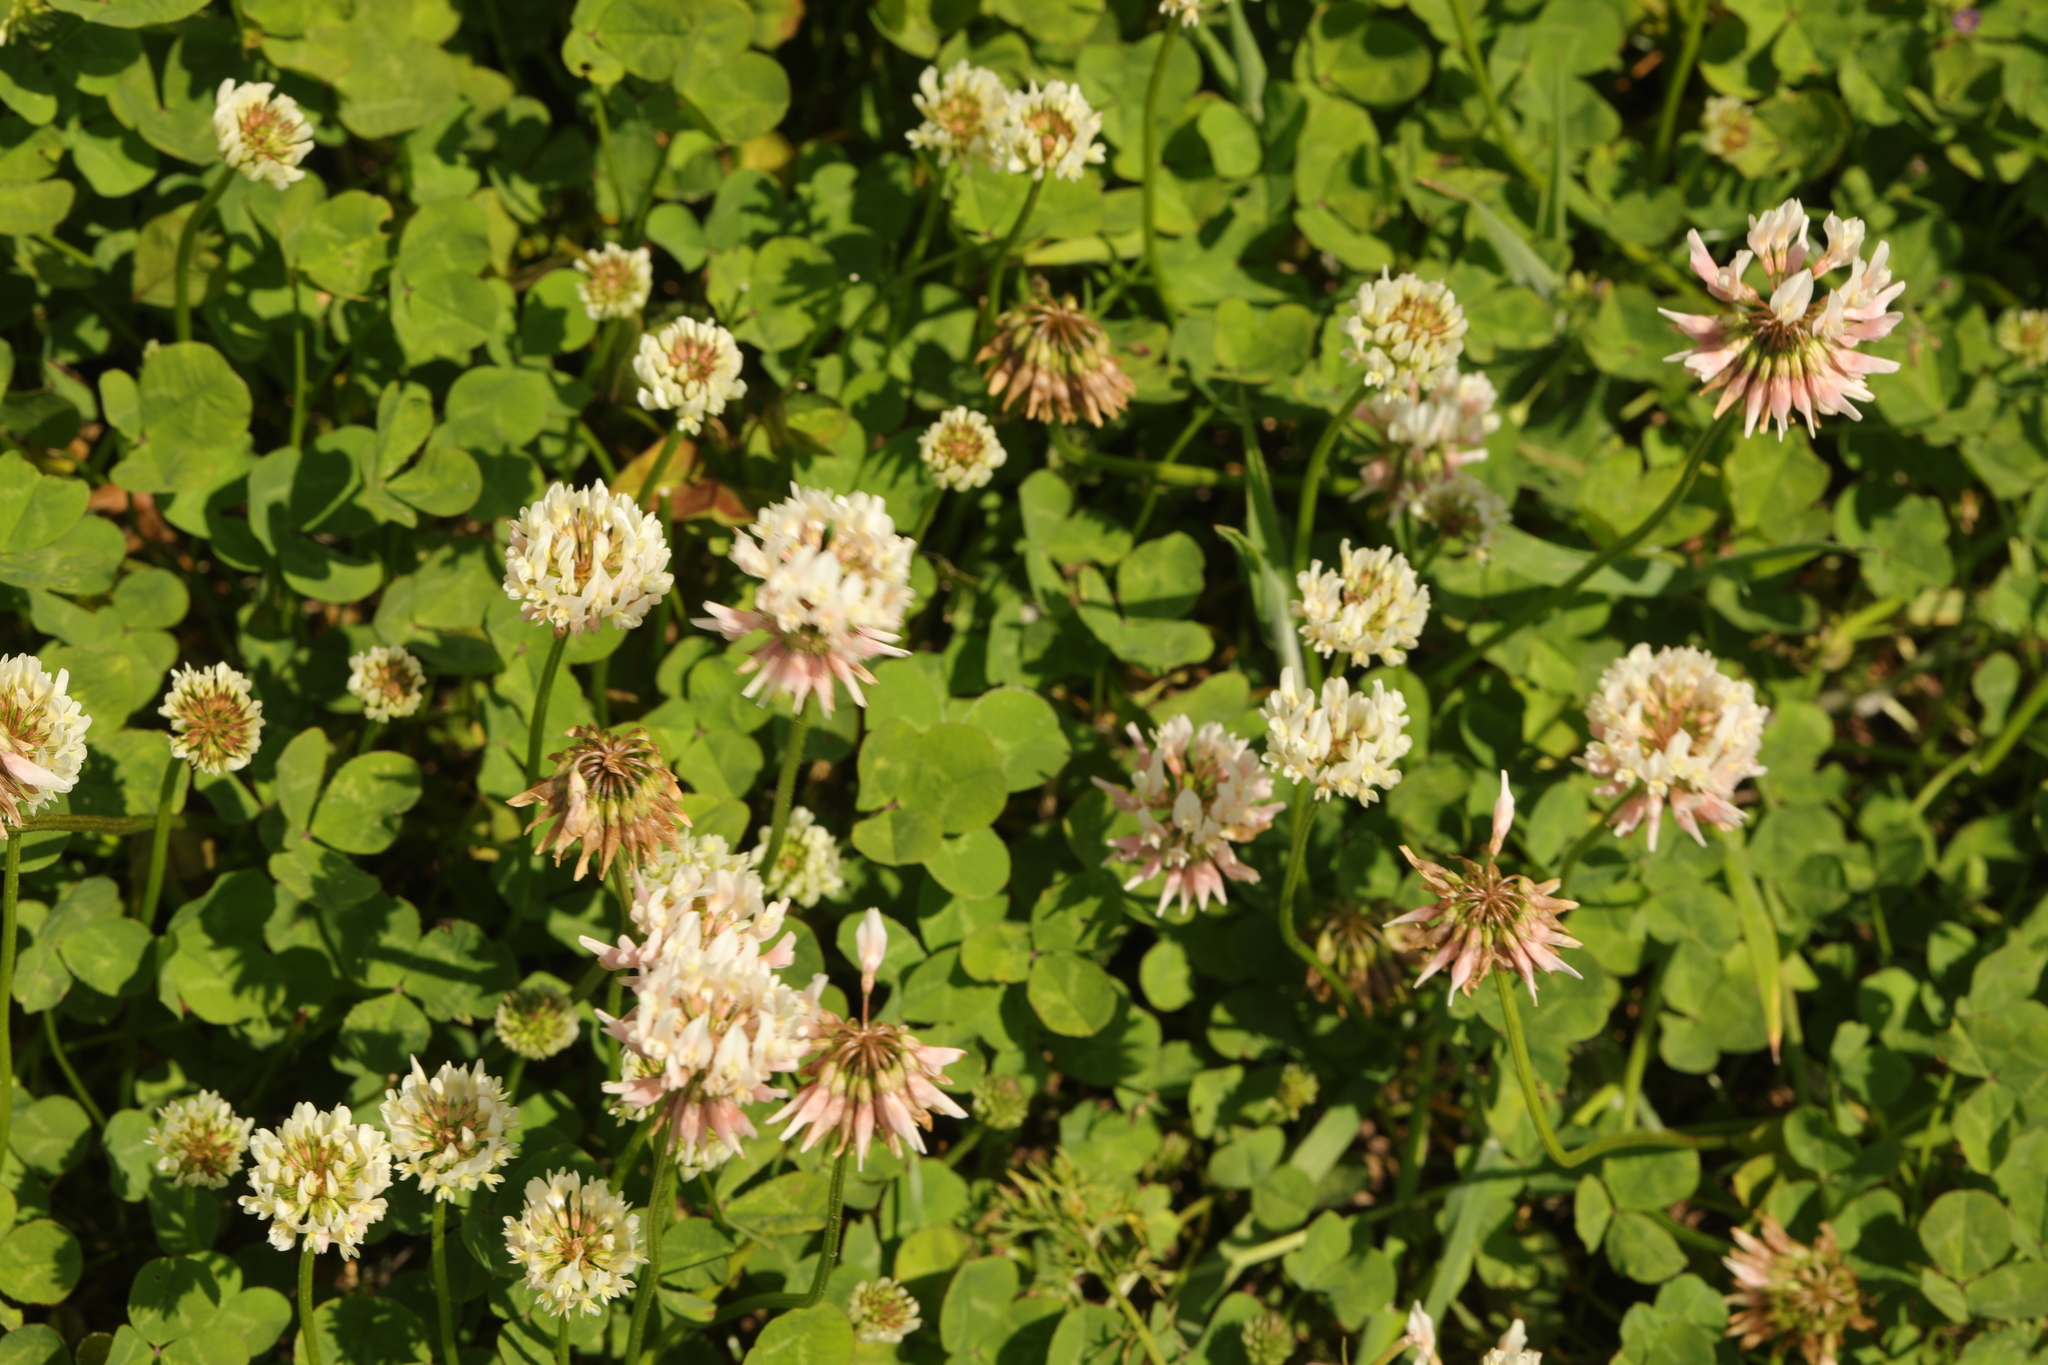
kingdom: Plantae
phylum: Tracheophyta
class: Magnoliopsida
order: Fabales
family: Fabaceae
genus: Trifolium
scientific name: Trifolium repens
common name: White clover
